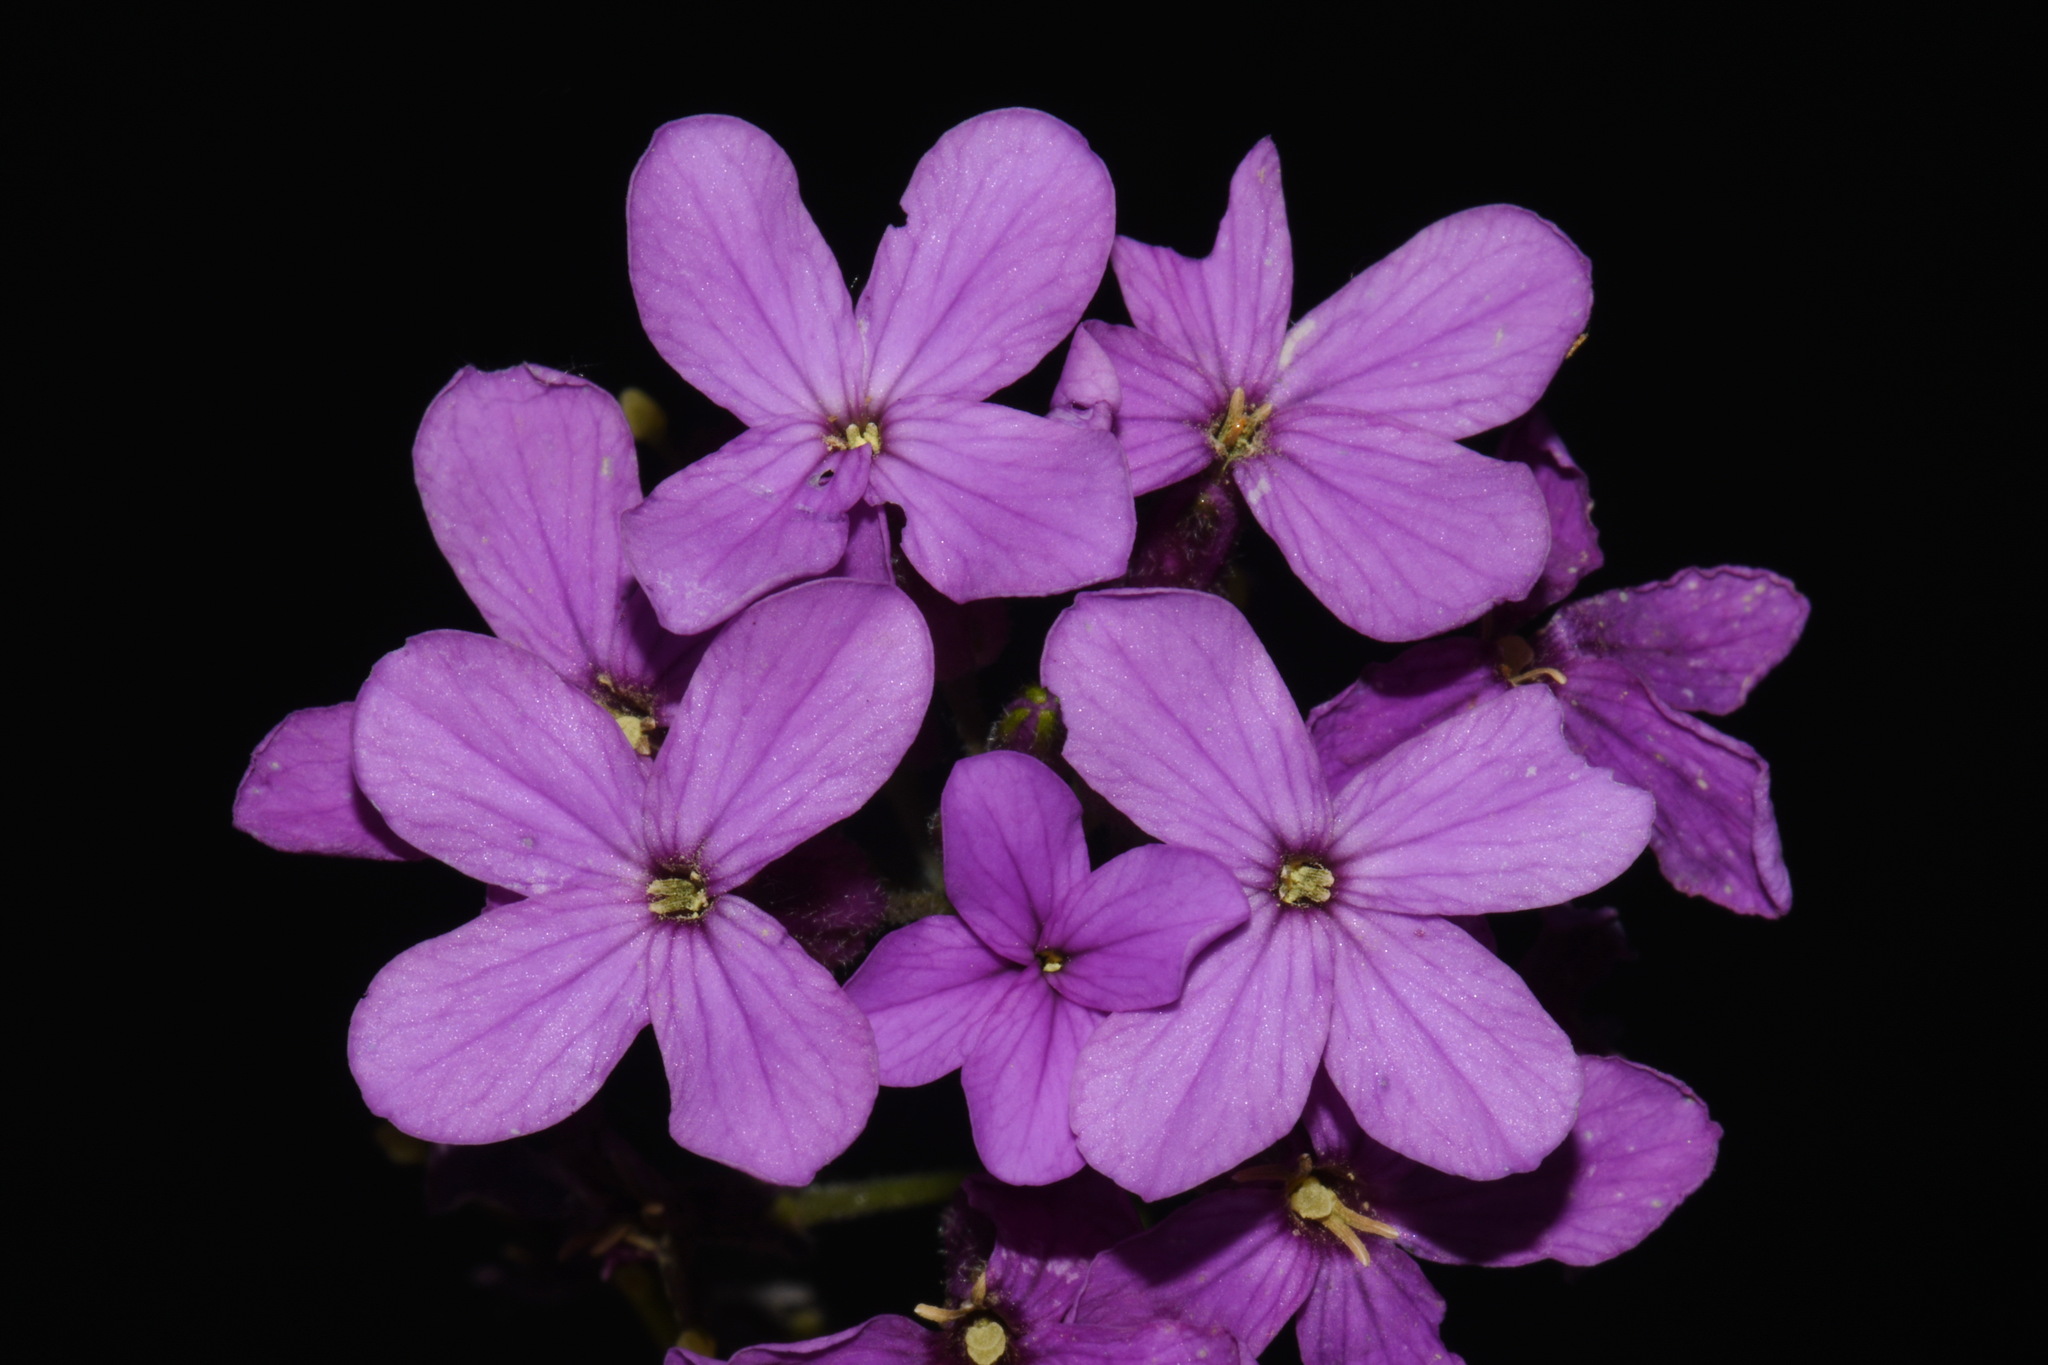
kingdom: Plantae
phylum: Tracheophyta
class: Magnoliopsida
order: Brassicales
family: Brassicaceae
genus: Hesperis
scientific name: Hesperis matronalis
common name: Dame's-violet
